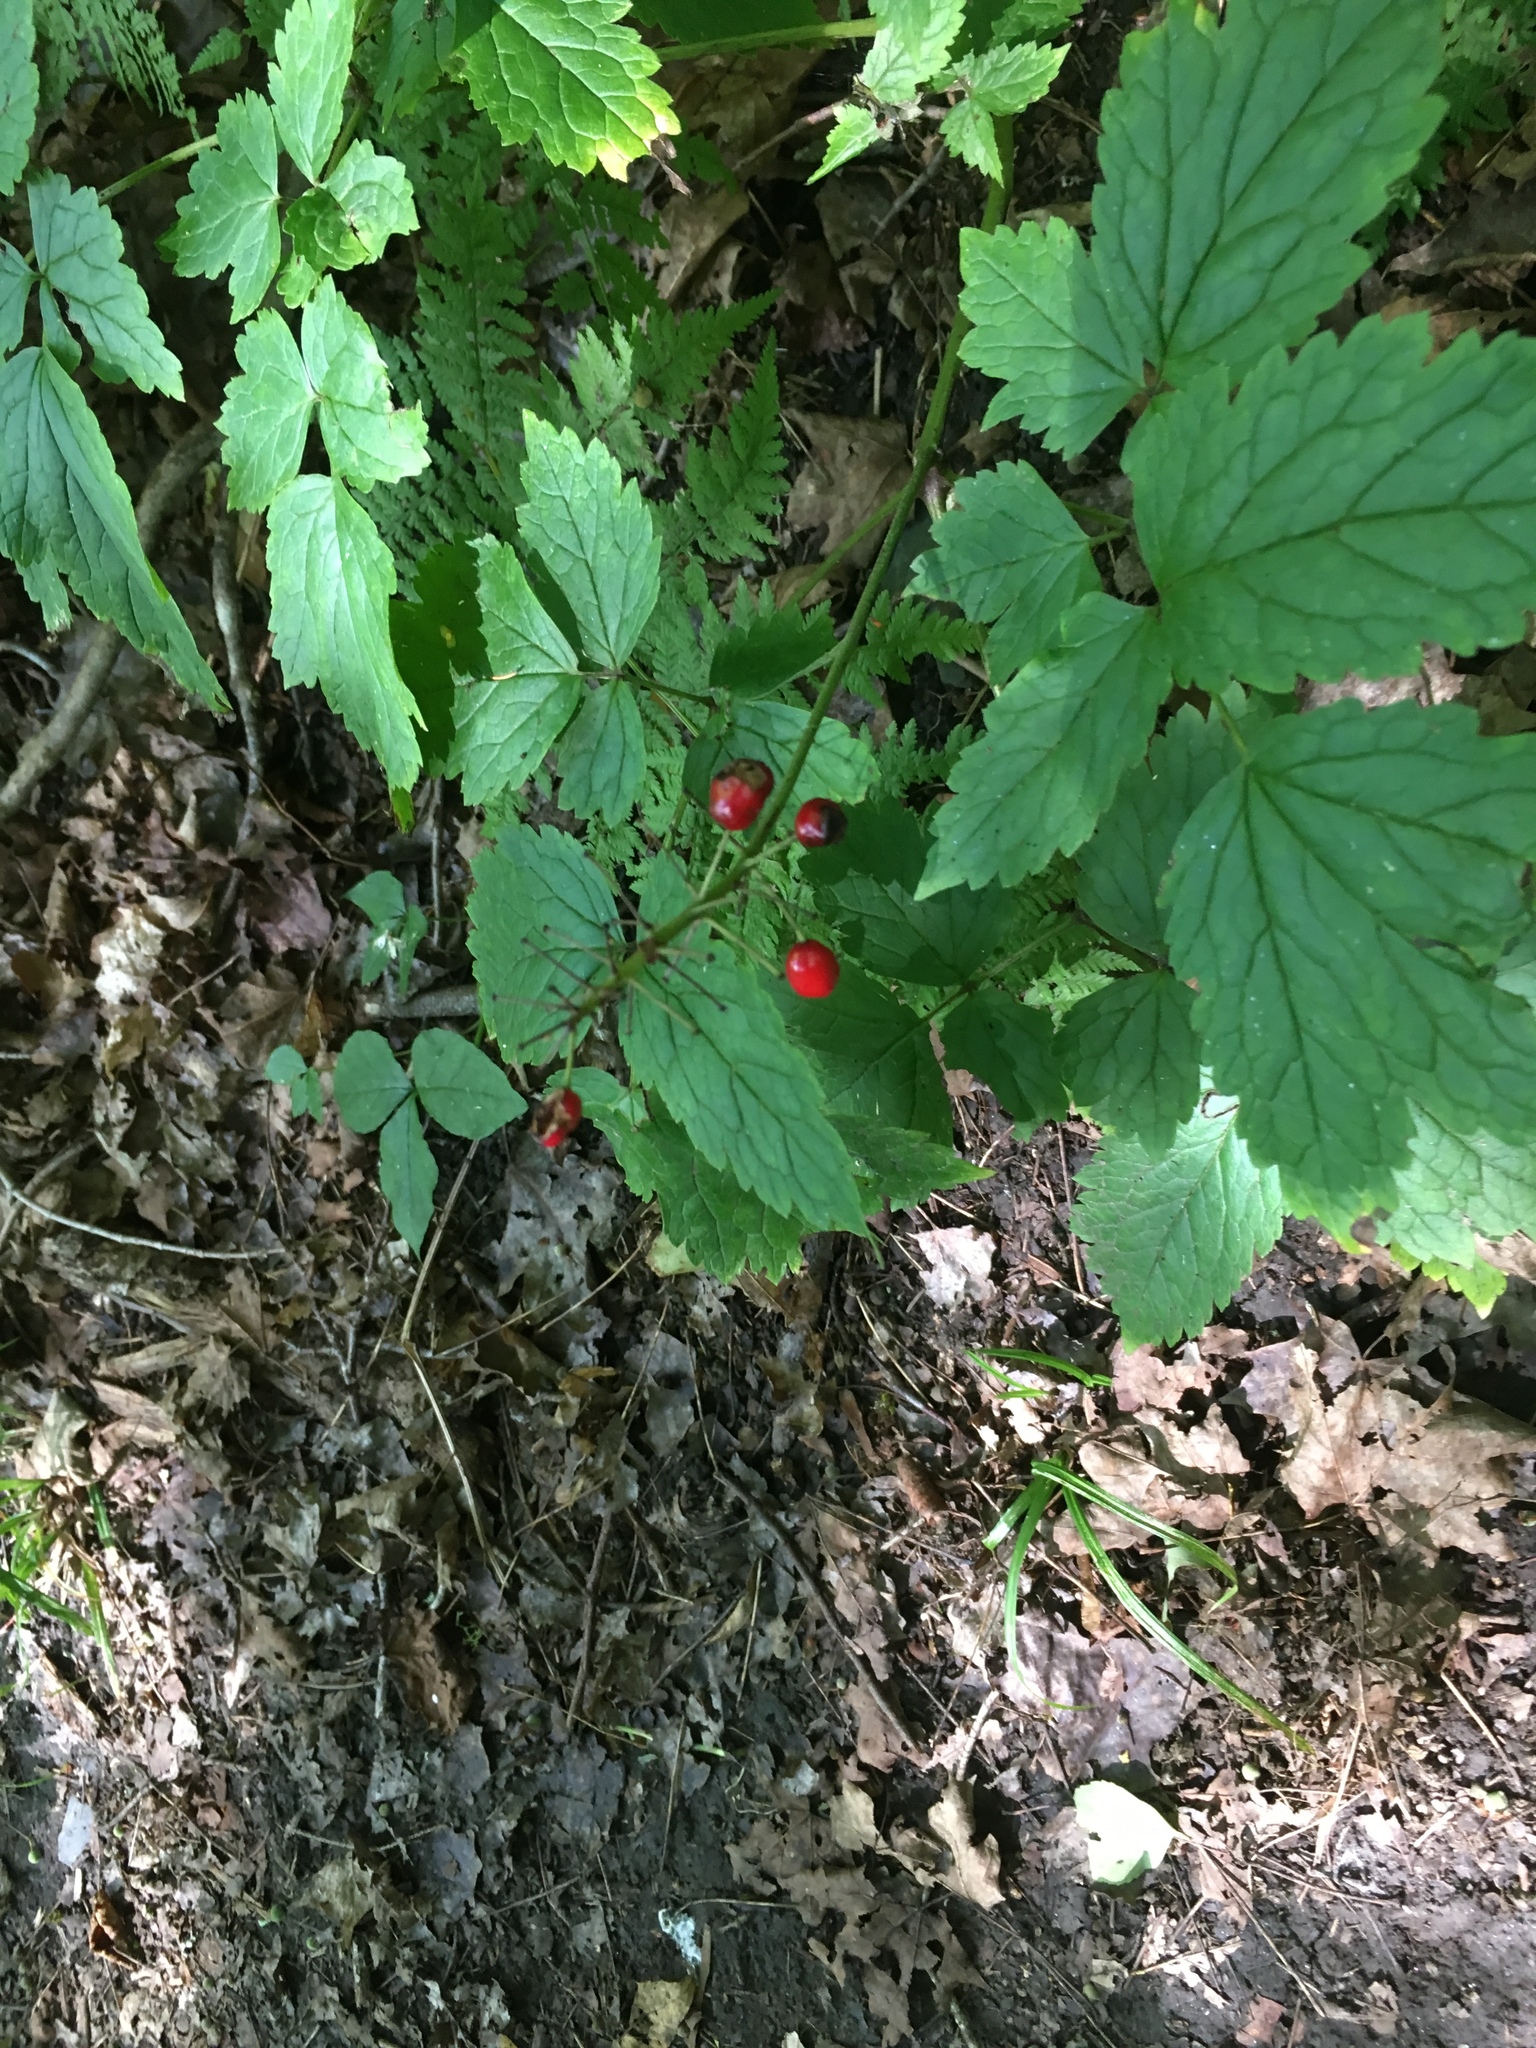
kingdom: Plantae
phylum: Tracheophyta
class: Magnoliopsida
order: Ranunculales
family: Ranunculaceae
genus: Actaea
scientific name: Actaea rubra
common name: Red baneberry
